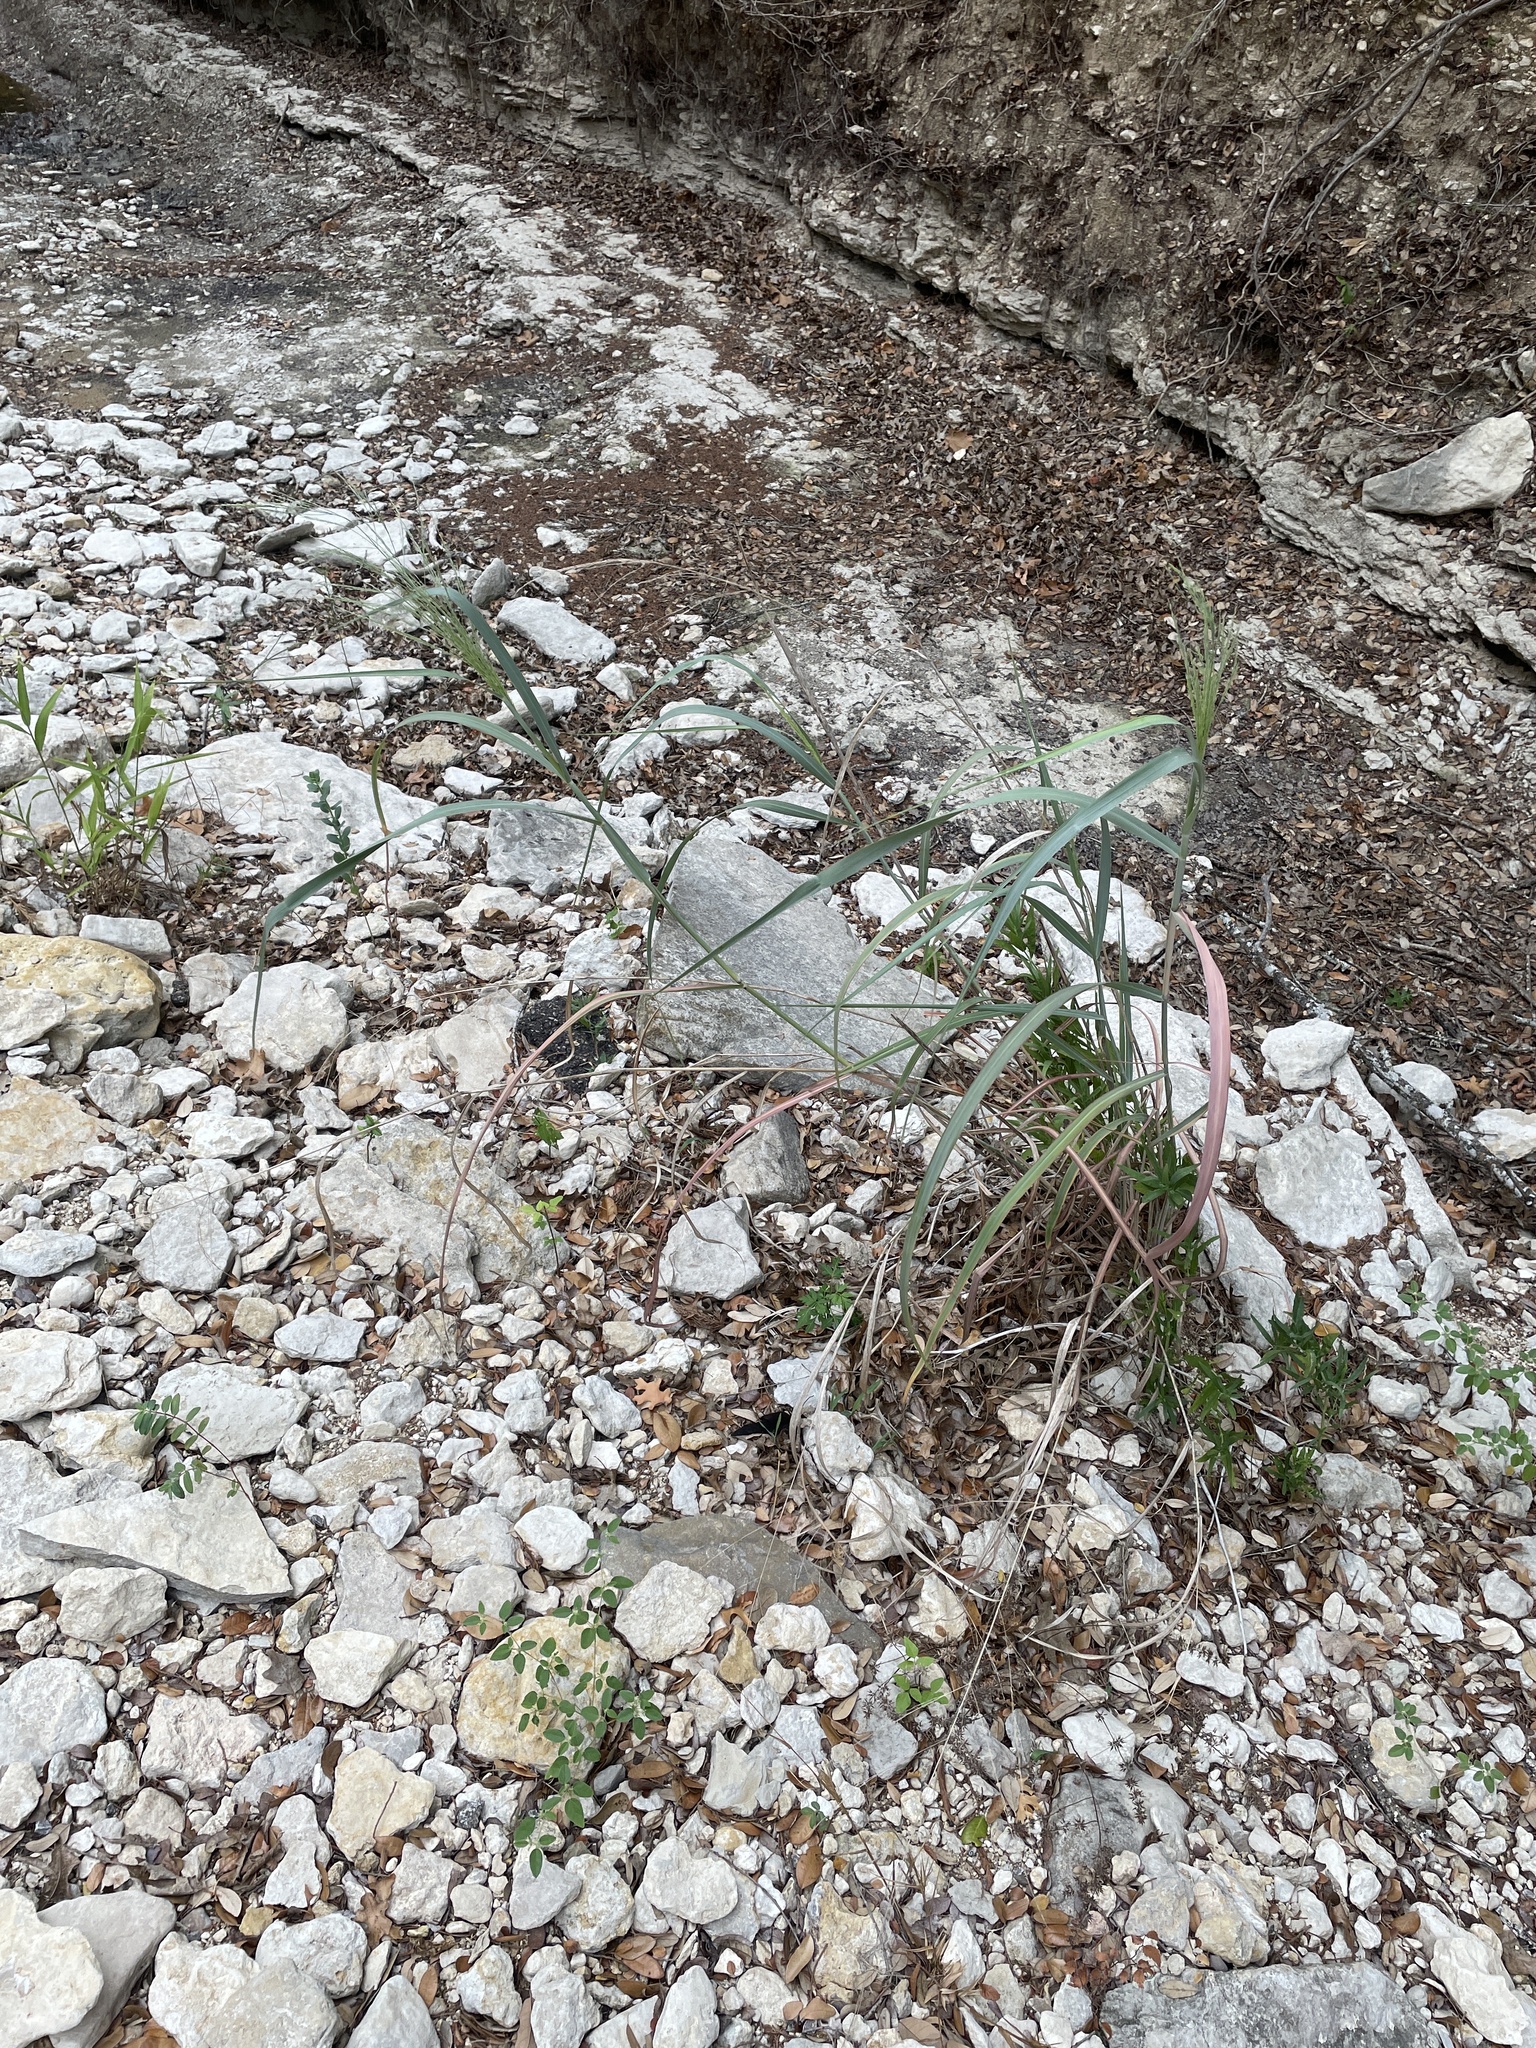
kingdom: Plantae
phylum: Tracheophyta
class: Liliopsida
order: Poales
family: Poaceae
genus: Panicum
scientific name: Panicum virgatum
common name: Switchgrass
